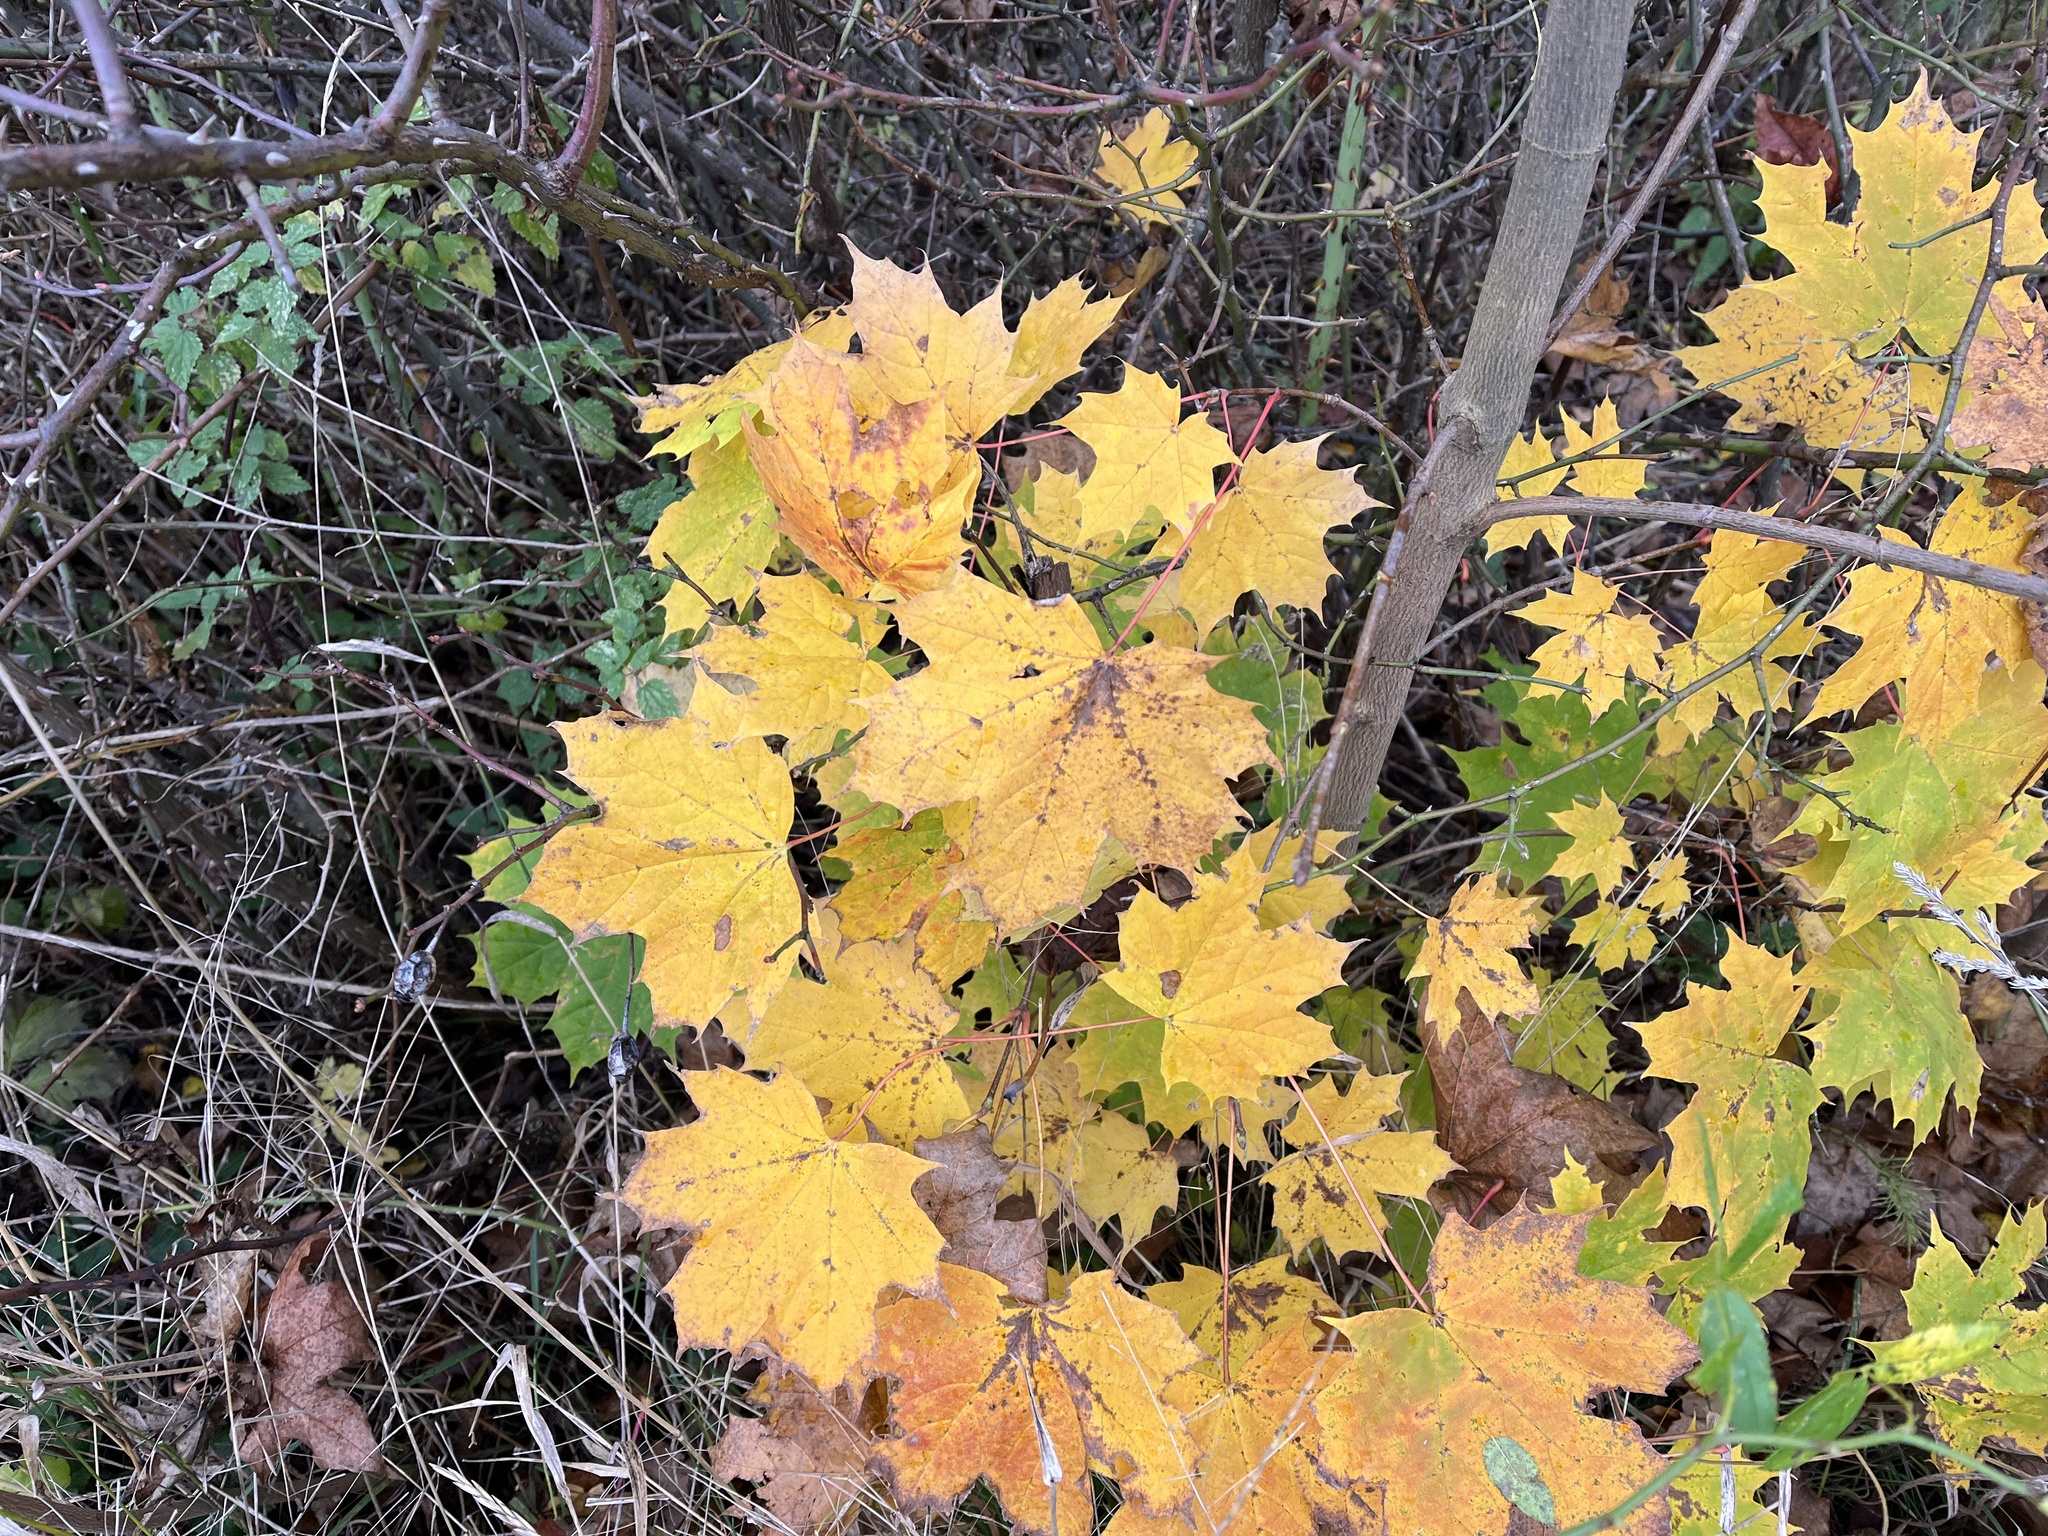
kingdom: Plantae
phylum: Tracheophyta
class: Magnoliopsida
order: Sapindales
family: Sapindaceae
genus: Acer
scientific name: Acer platanoides
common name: Norway maple
